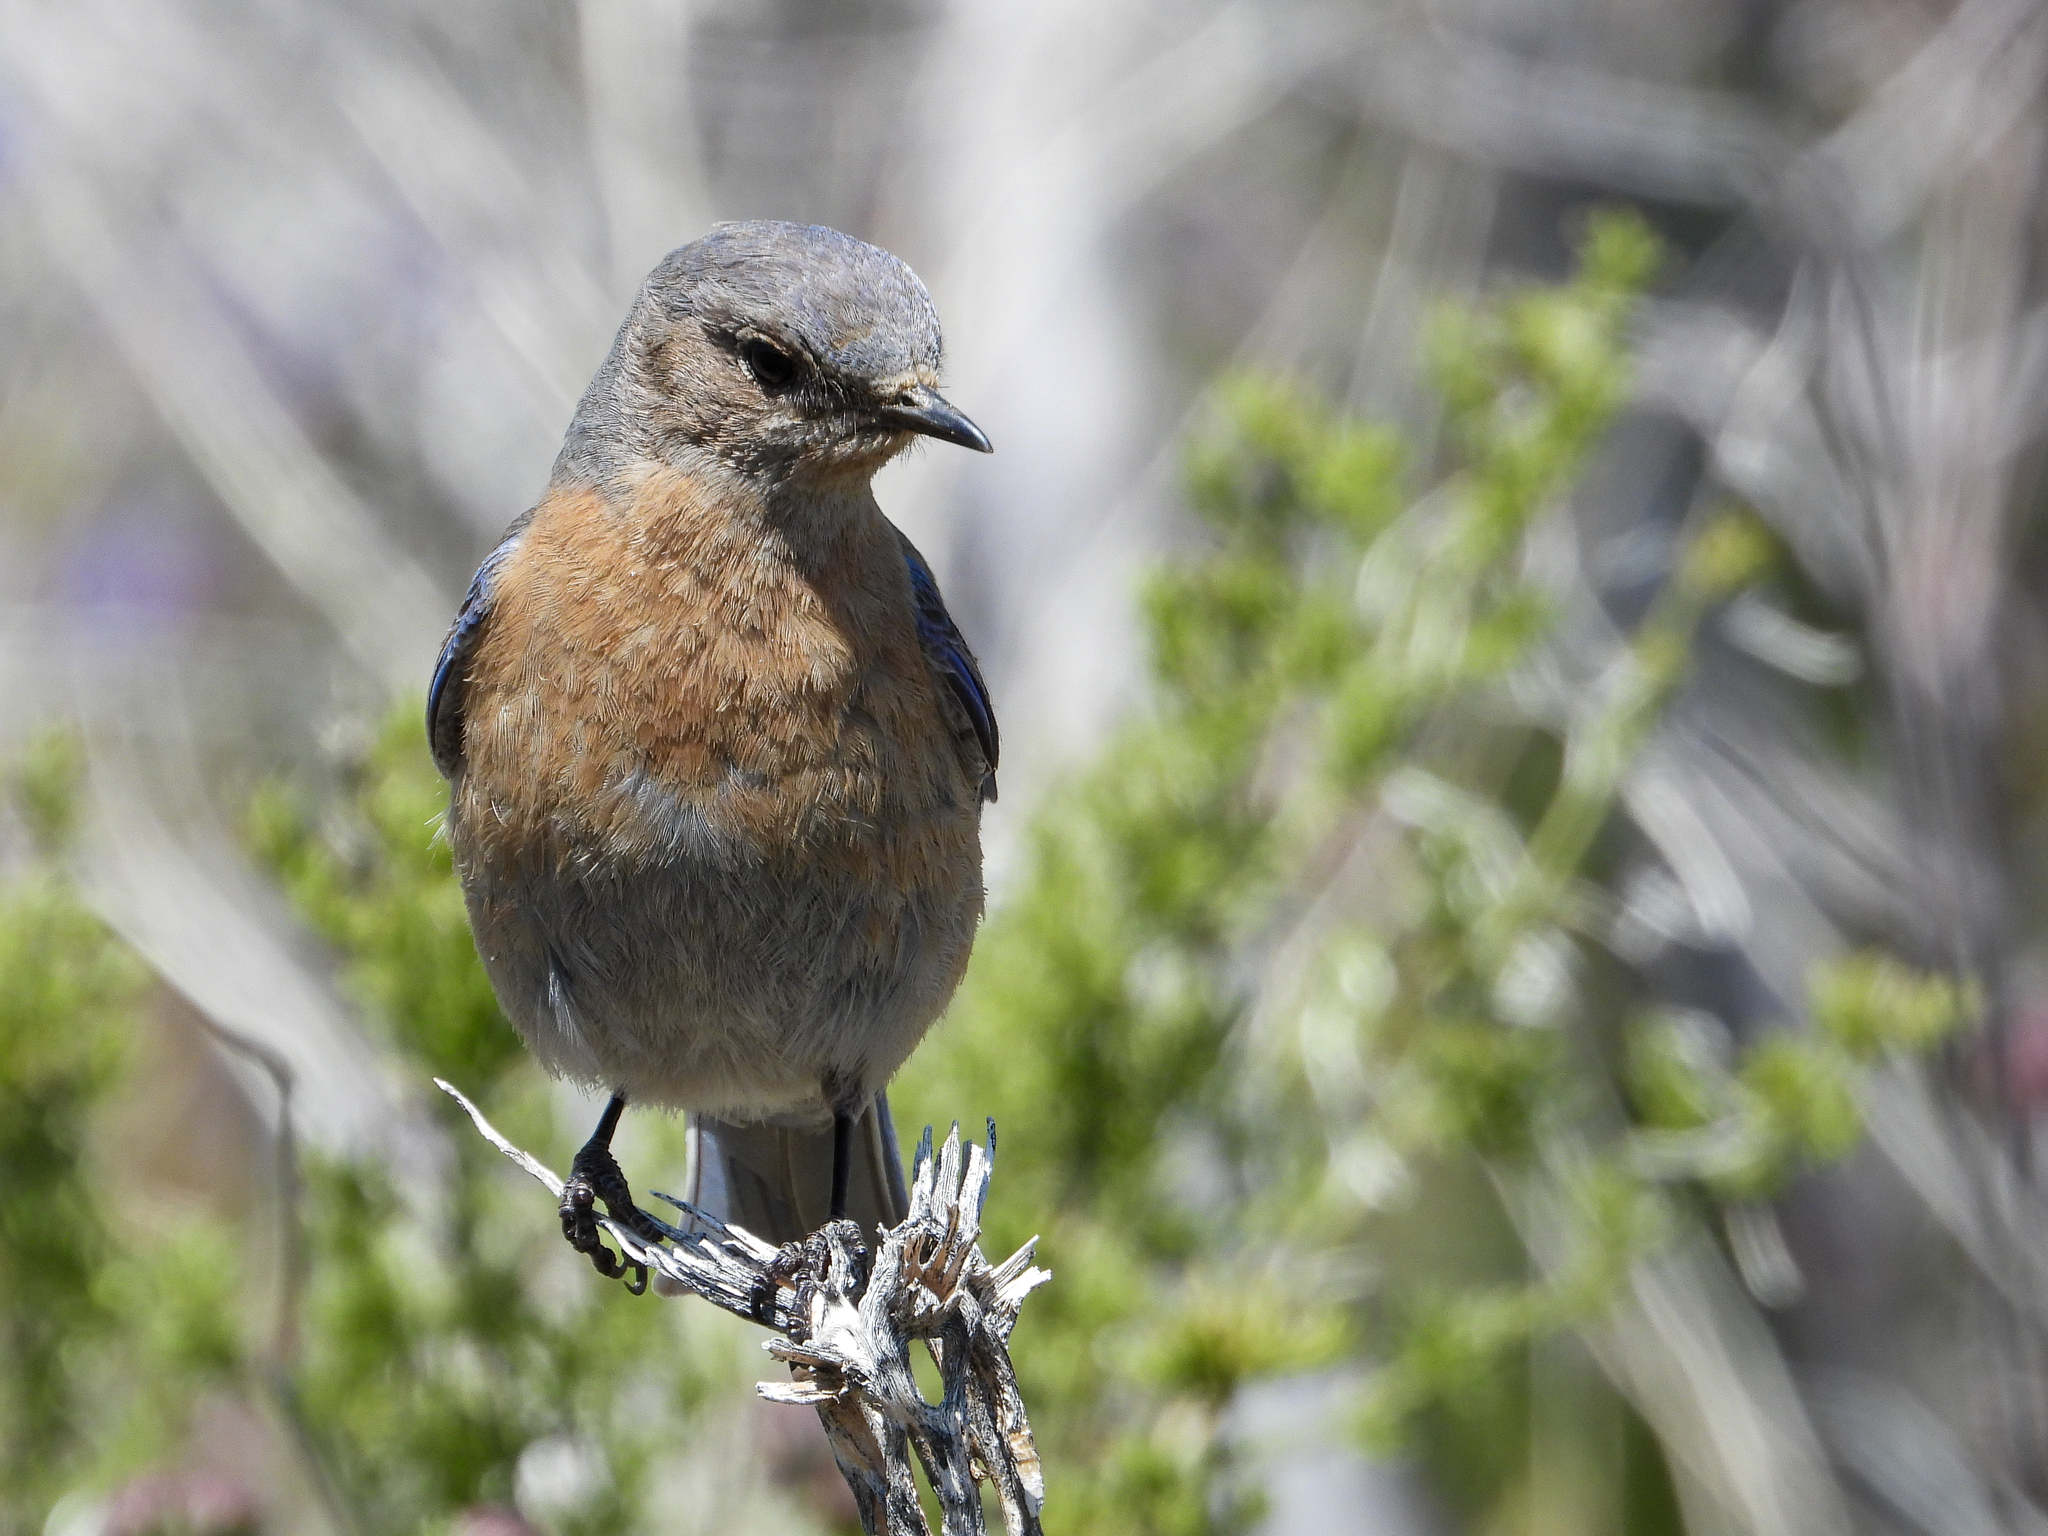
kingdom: Animalia
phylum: Chordata
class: Aves
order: Passeriformes
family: Turdidae
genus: Sialia
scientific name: Sialia mexicana
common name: Western bluebird
